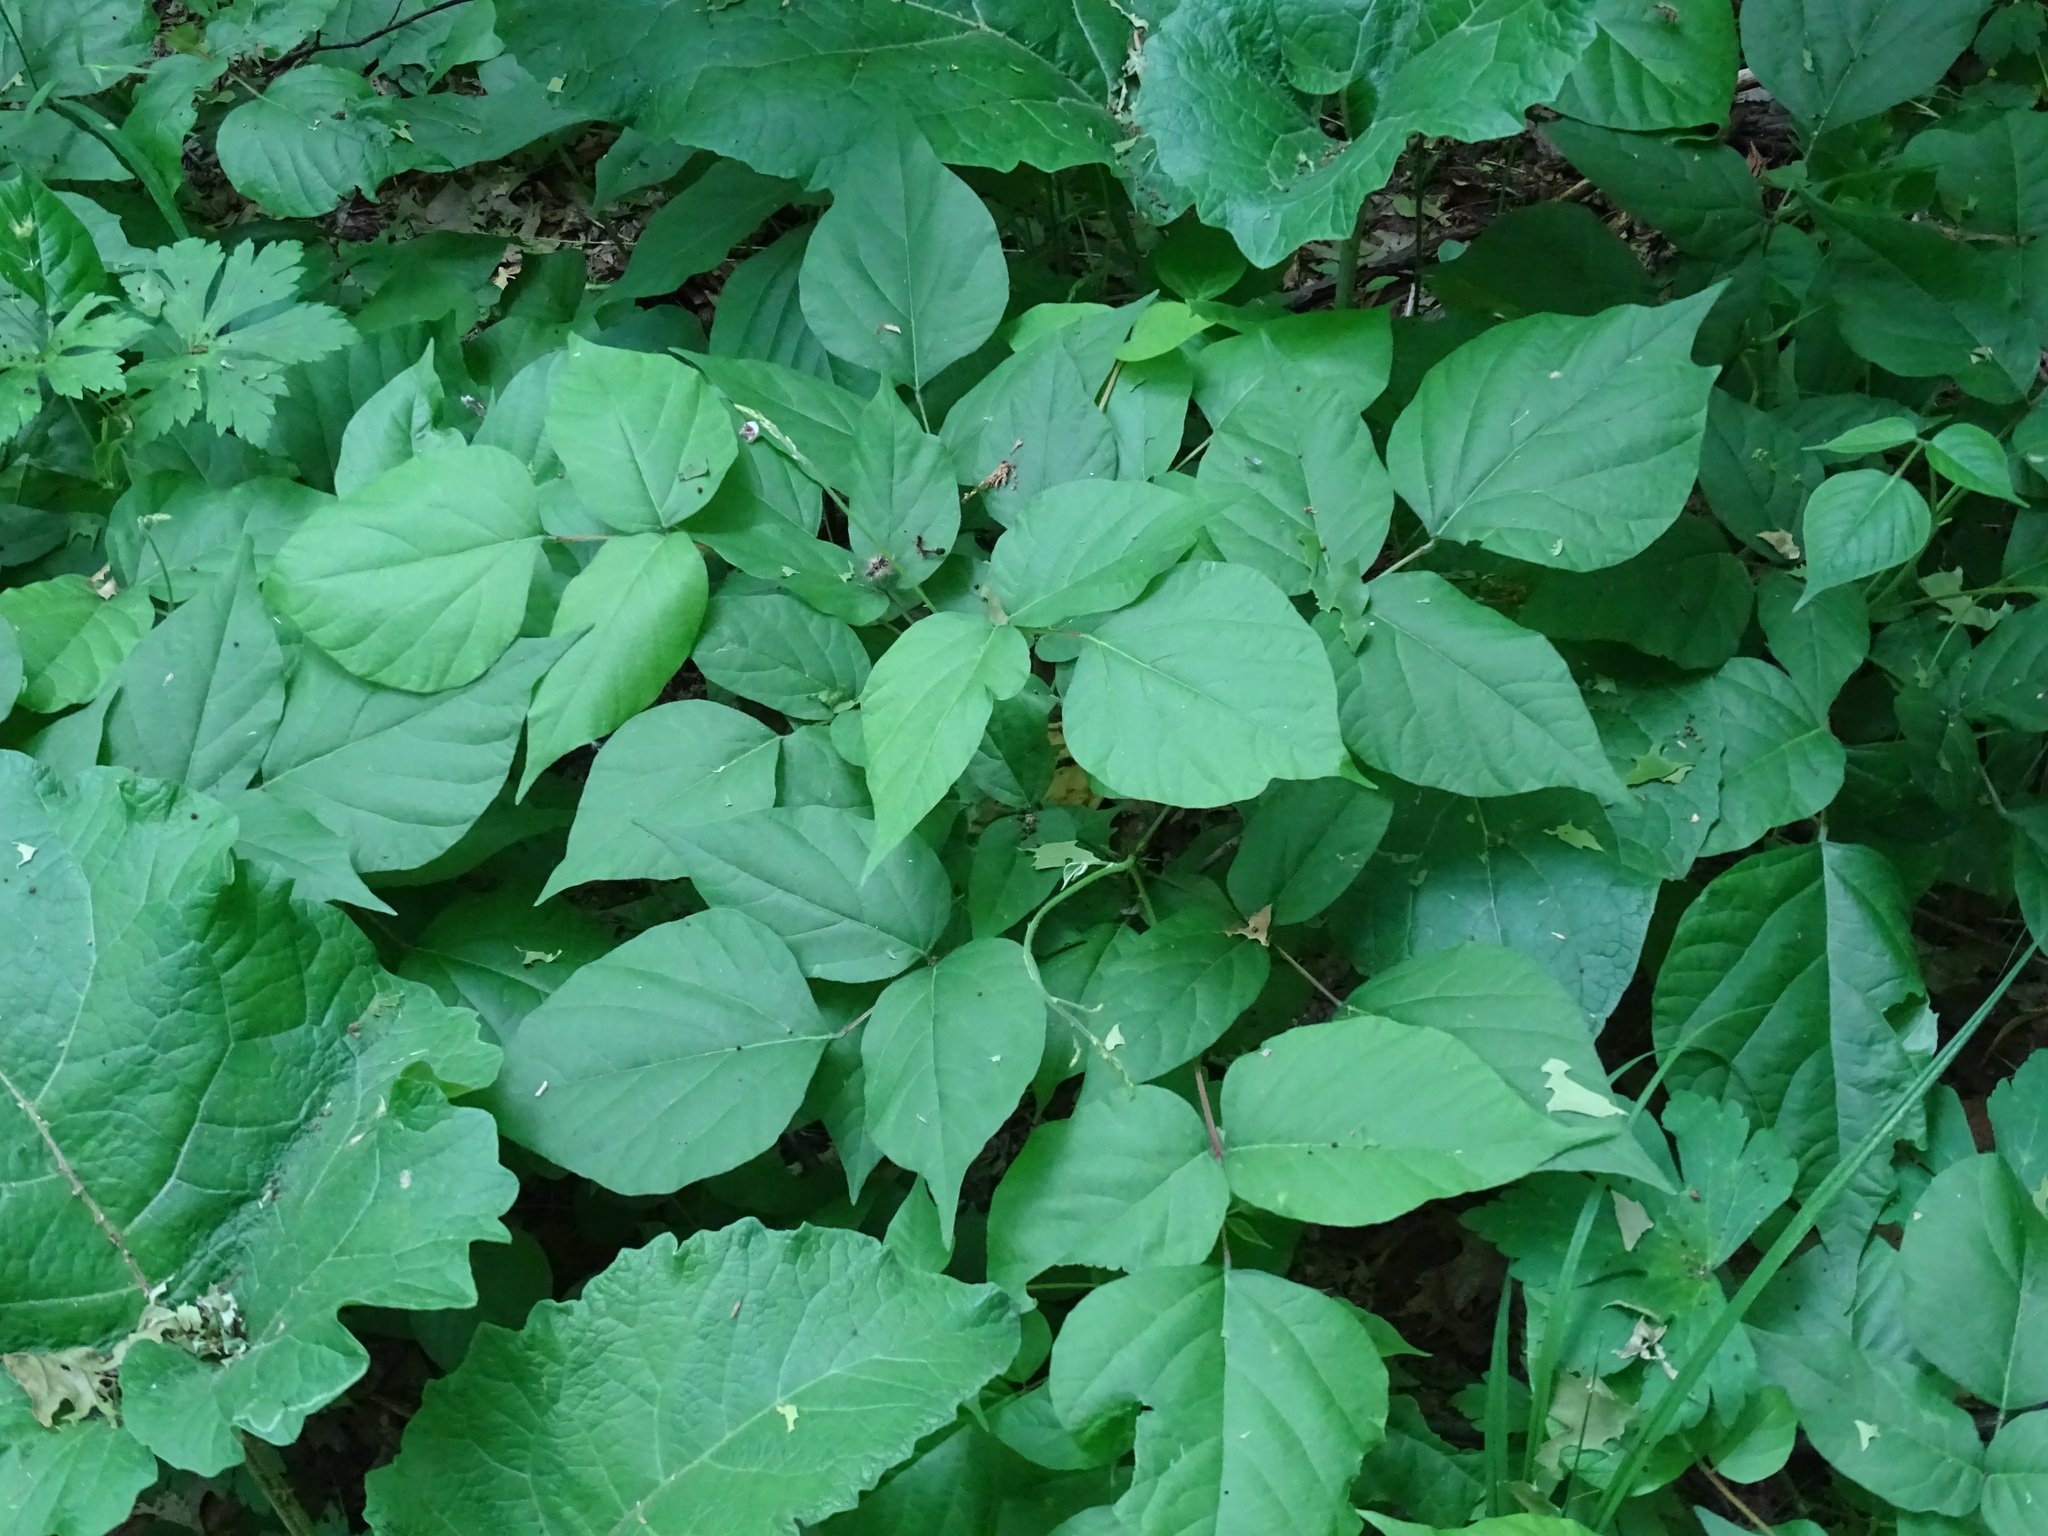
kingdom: Plantae
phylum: Tracheophyta
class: Magnoliopsida
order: Fabales
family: Fabaceae
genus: Hylodesmum
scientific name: Hylodesmum glutinosum
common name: Clustered-leaved tick-trefoil
